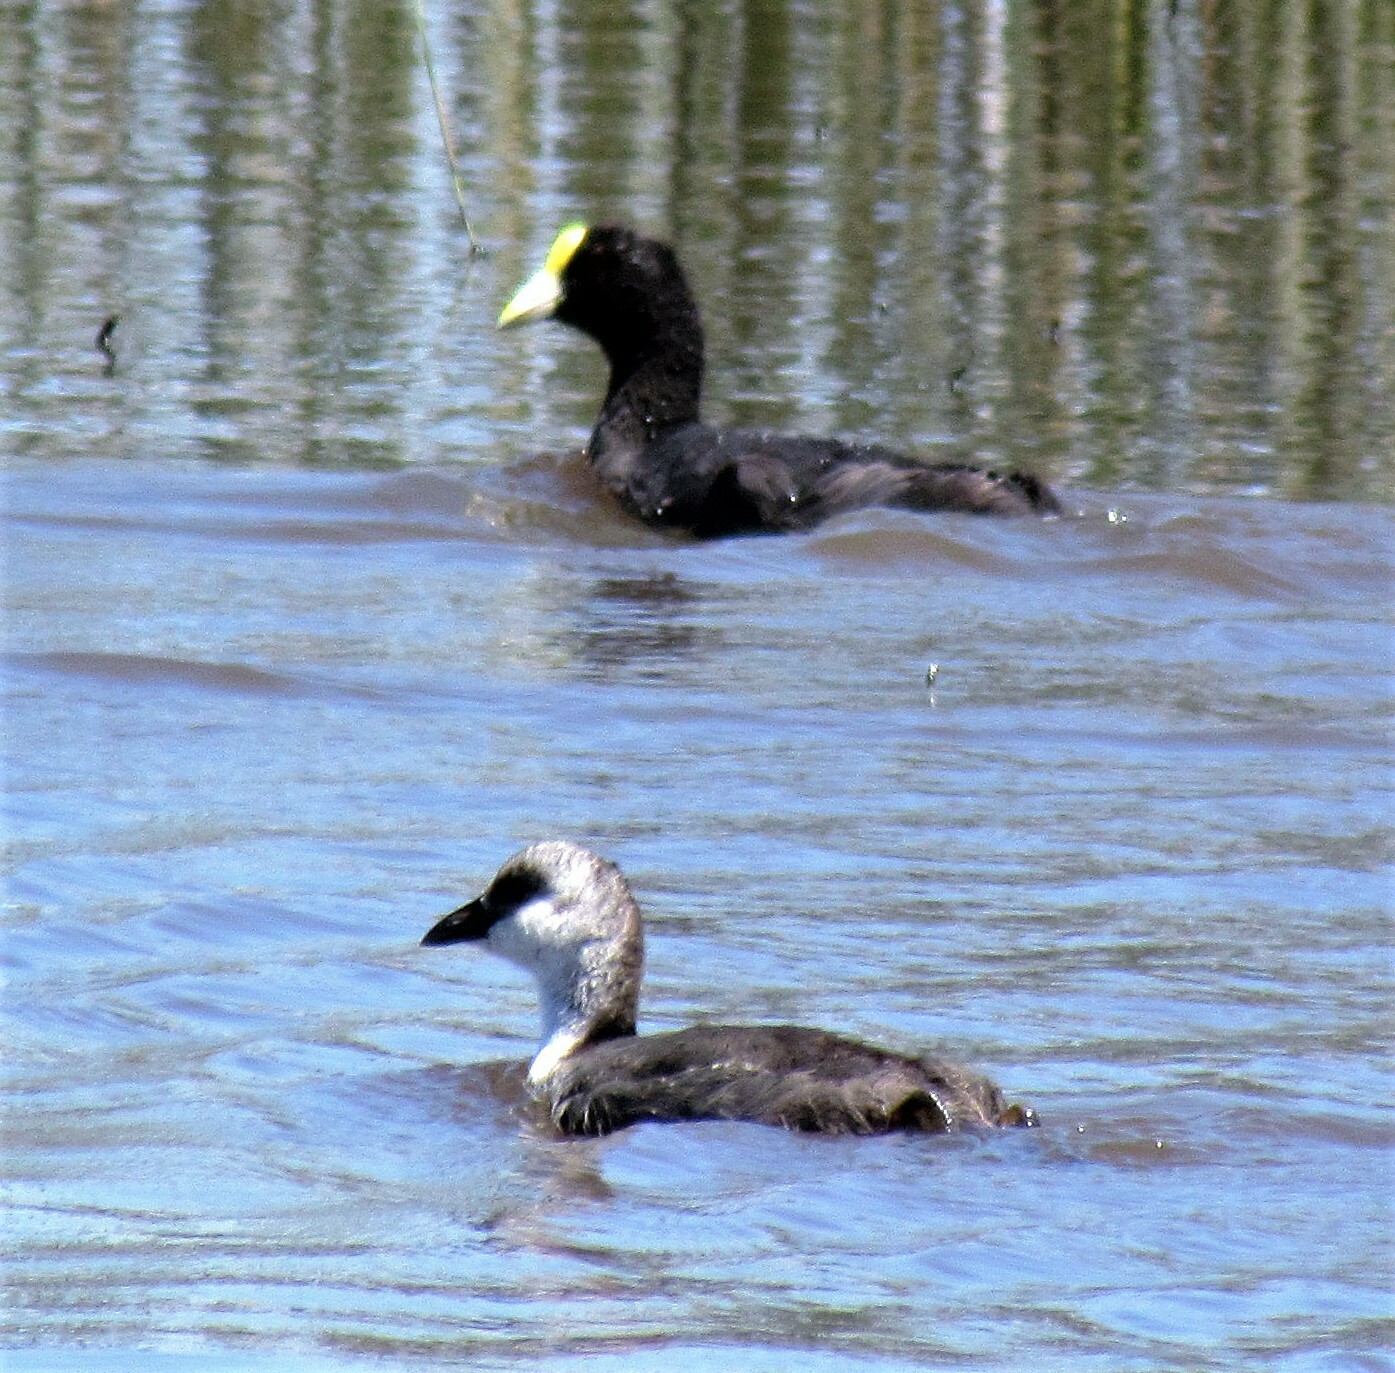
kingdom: Animalia
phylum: Chordata
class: Aves
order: Gruiformes
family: Rallidae
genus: Fulica
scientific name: Fulica leucoptera
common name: White-winged coot
